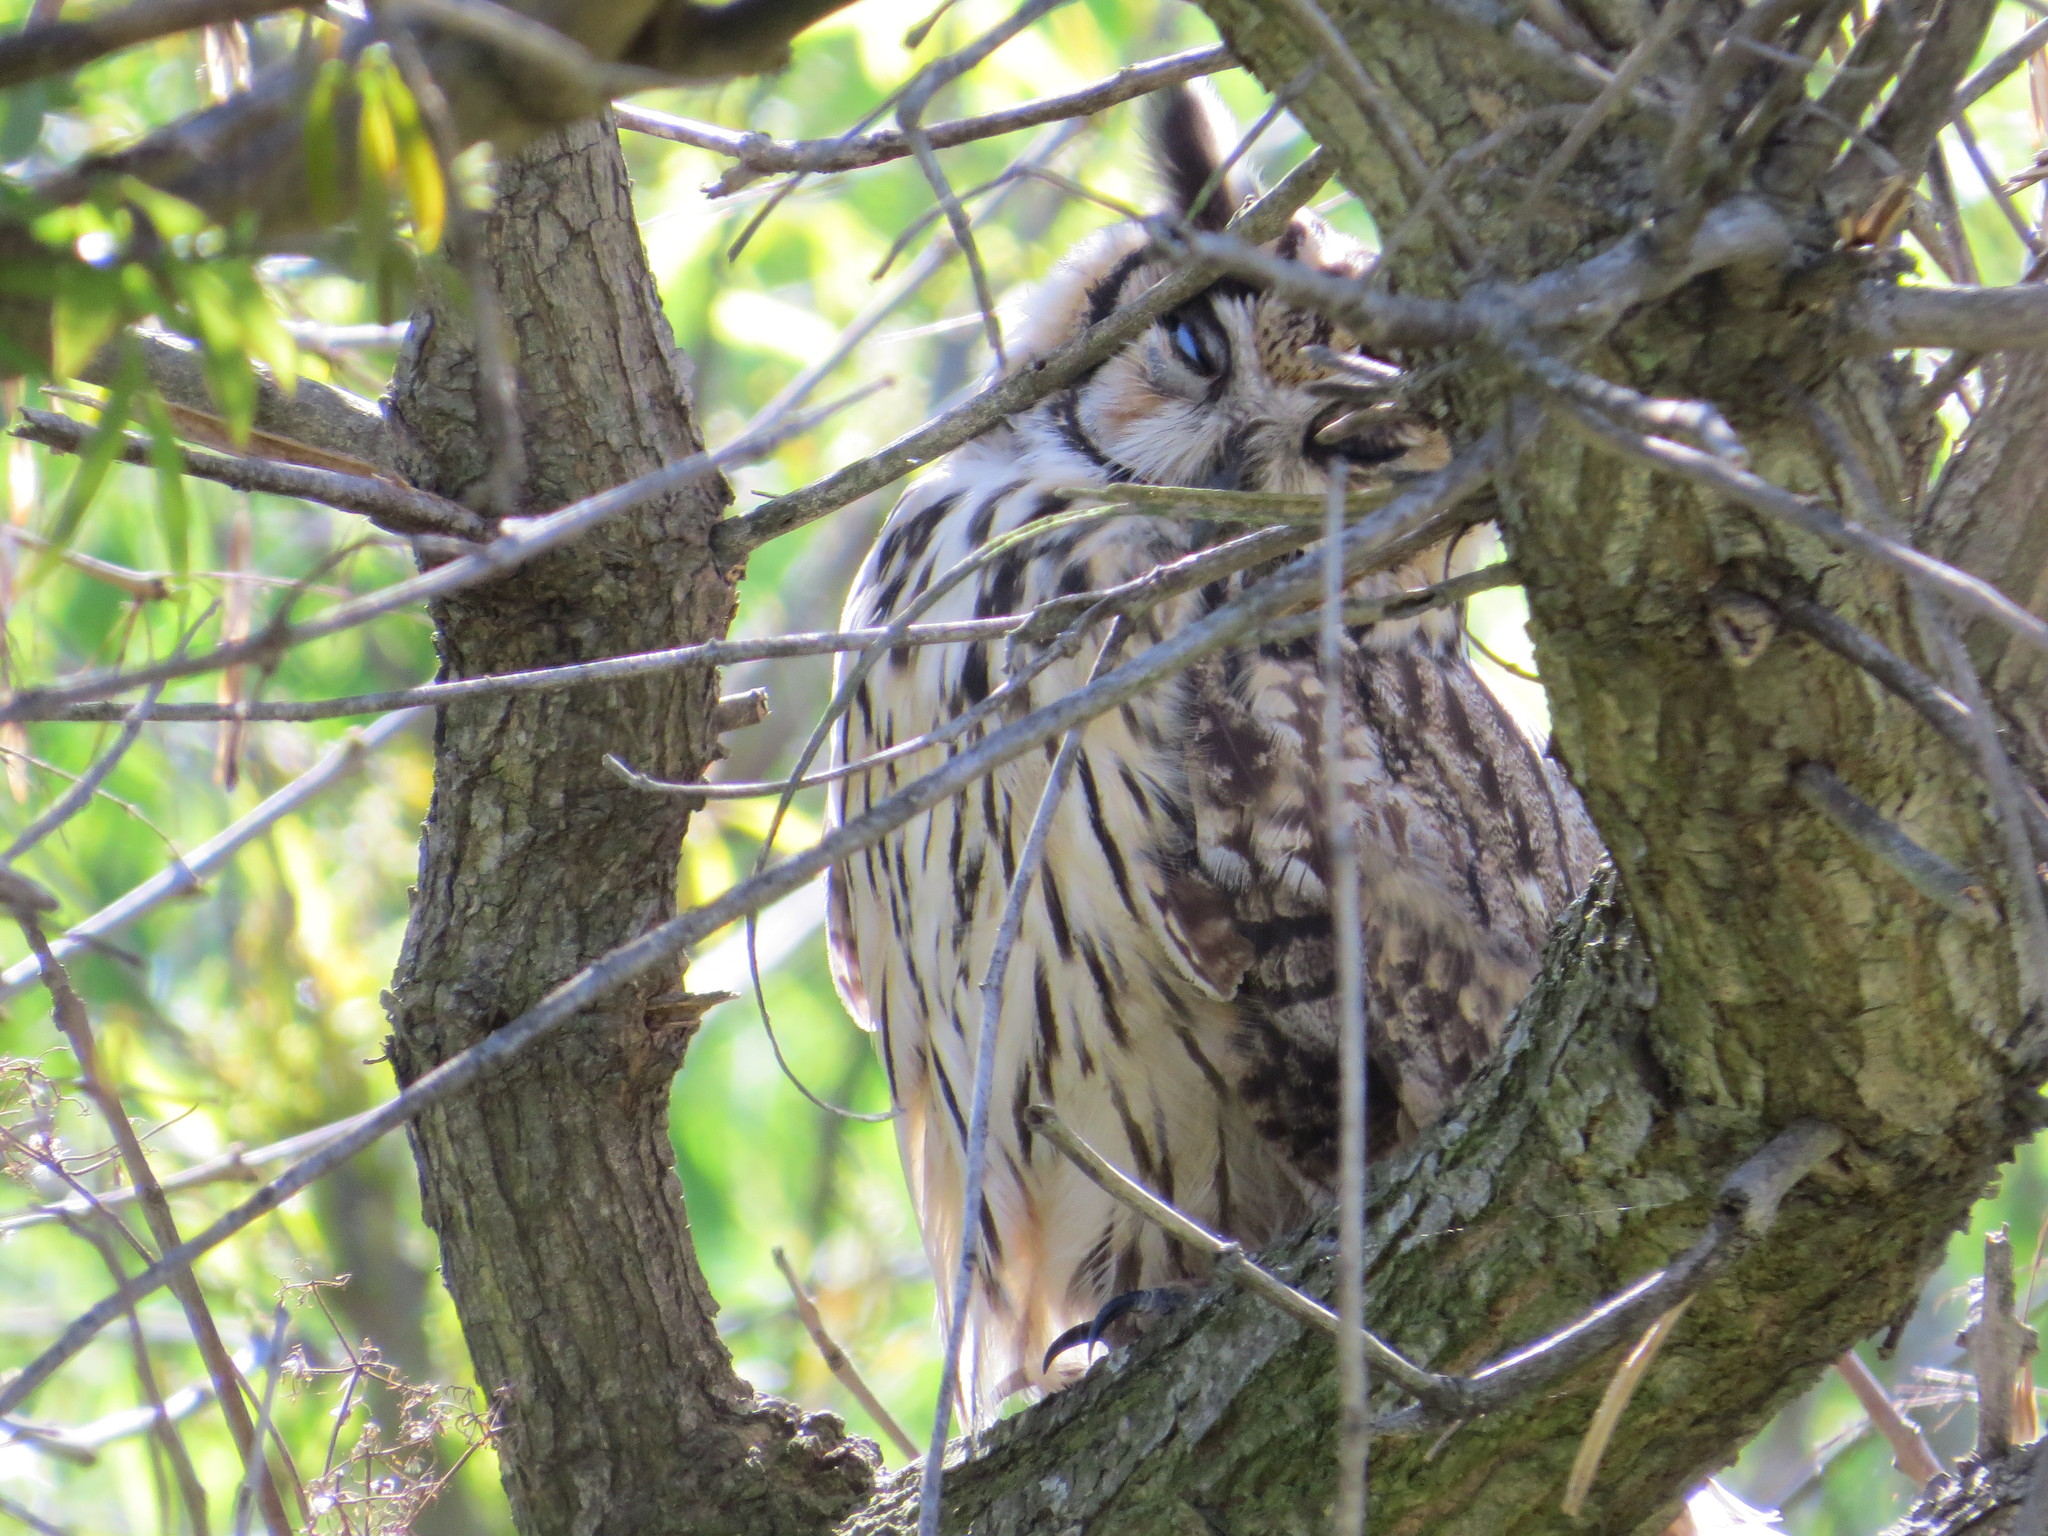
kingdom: Animalia
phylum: Chordata
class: Aves
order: Strigiformes
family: Strigidae
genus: Pseudoscops
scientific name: Pseudoscops clamator
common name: Striped owl
